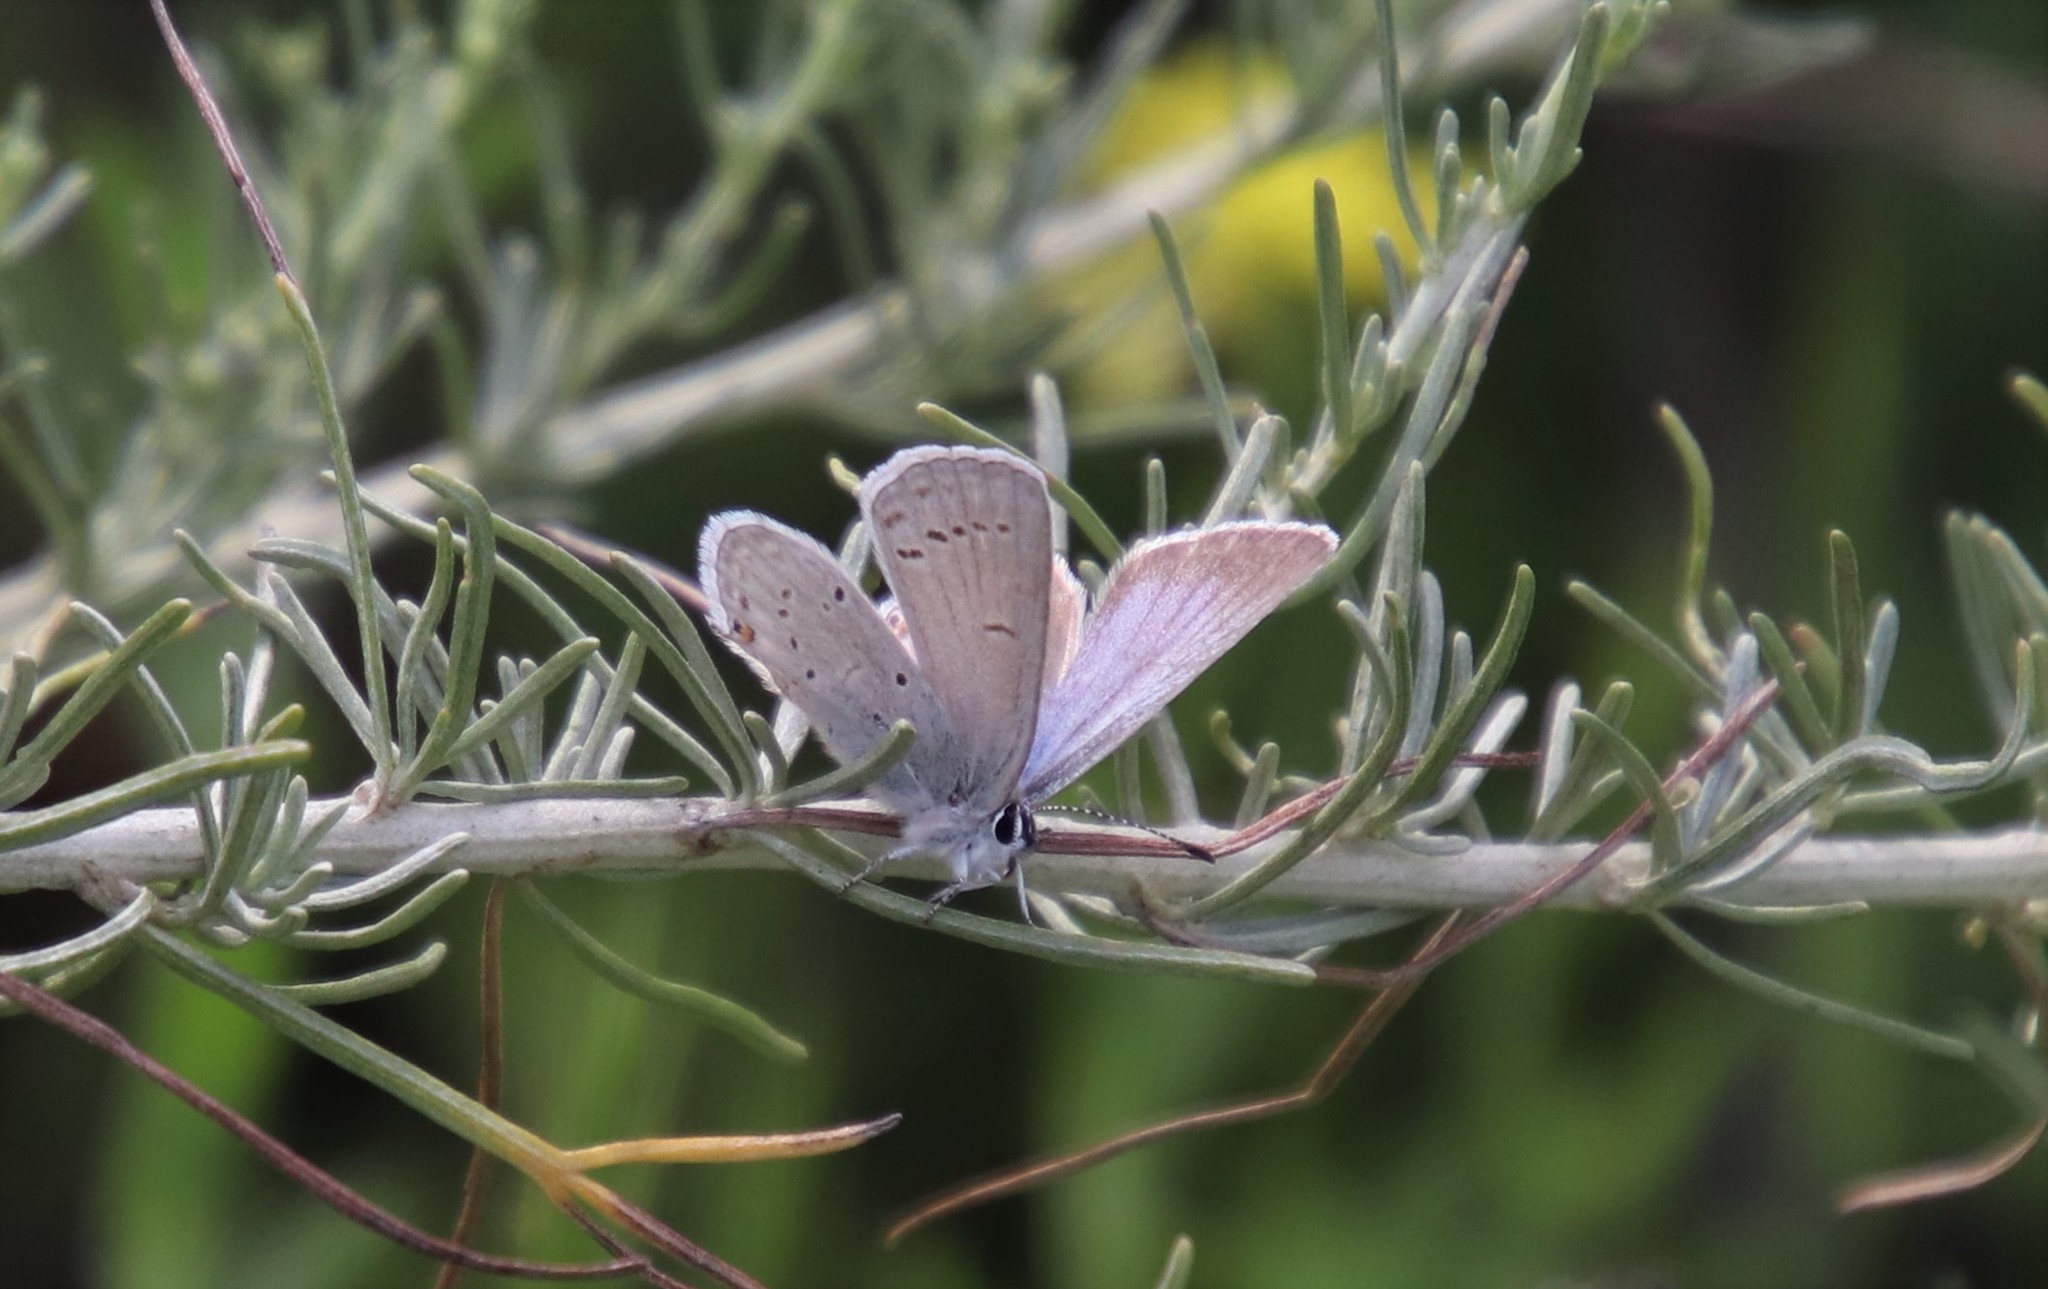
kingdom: Animalia
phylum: Arthropoda
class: Insecta
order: Lepidoptera
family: Lycaenidae
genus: Elkalyce
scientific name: Elkalyce amyntula
